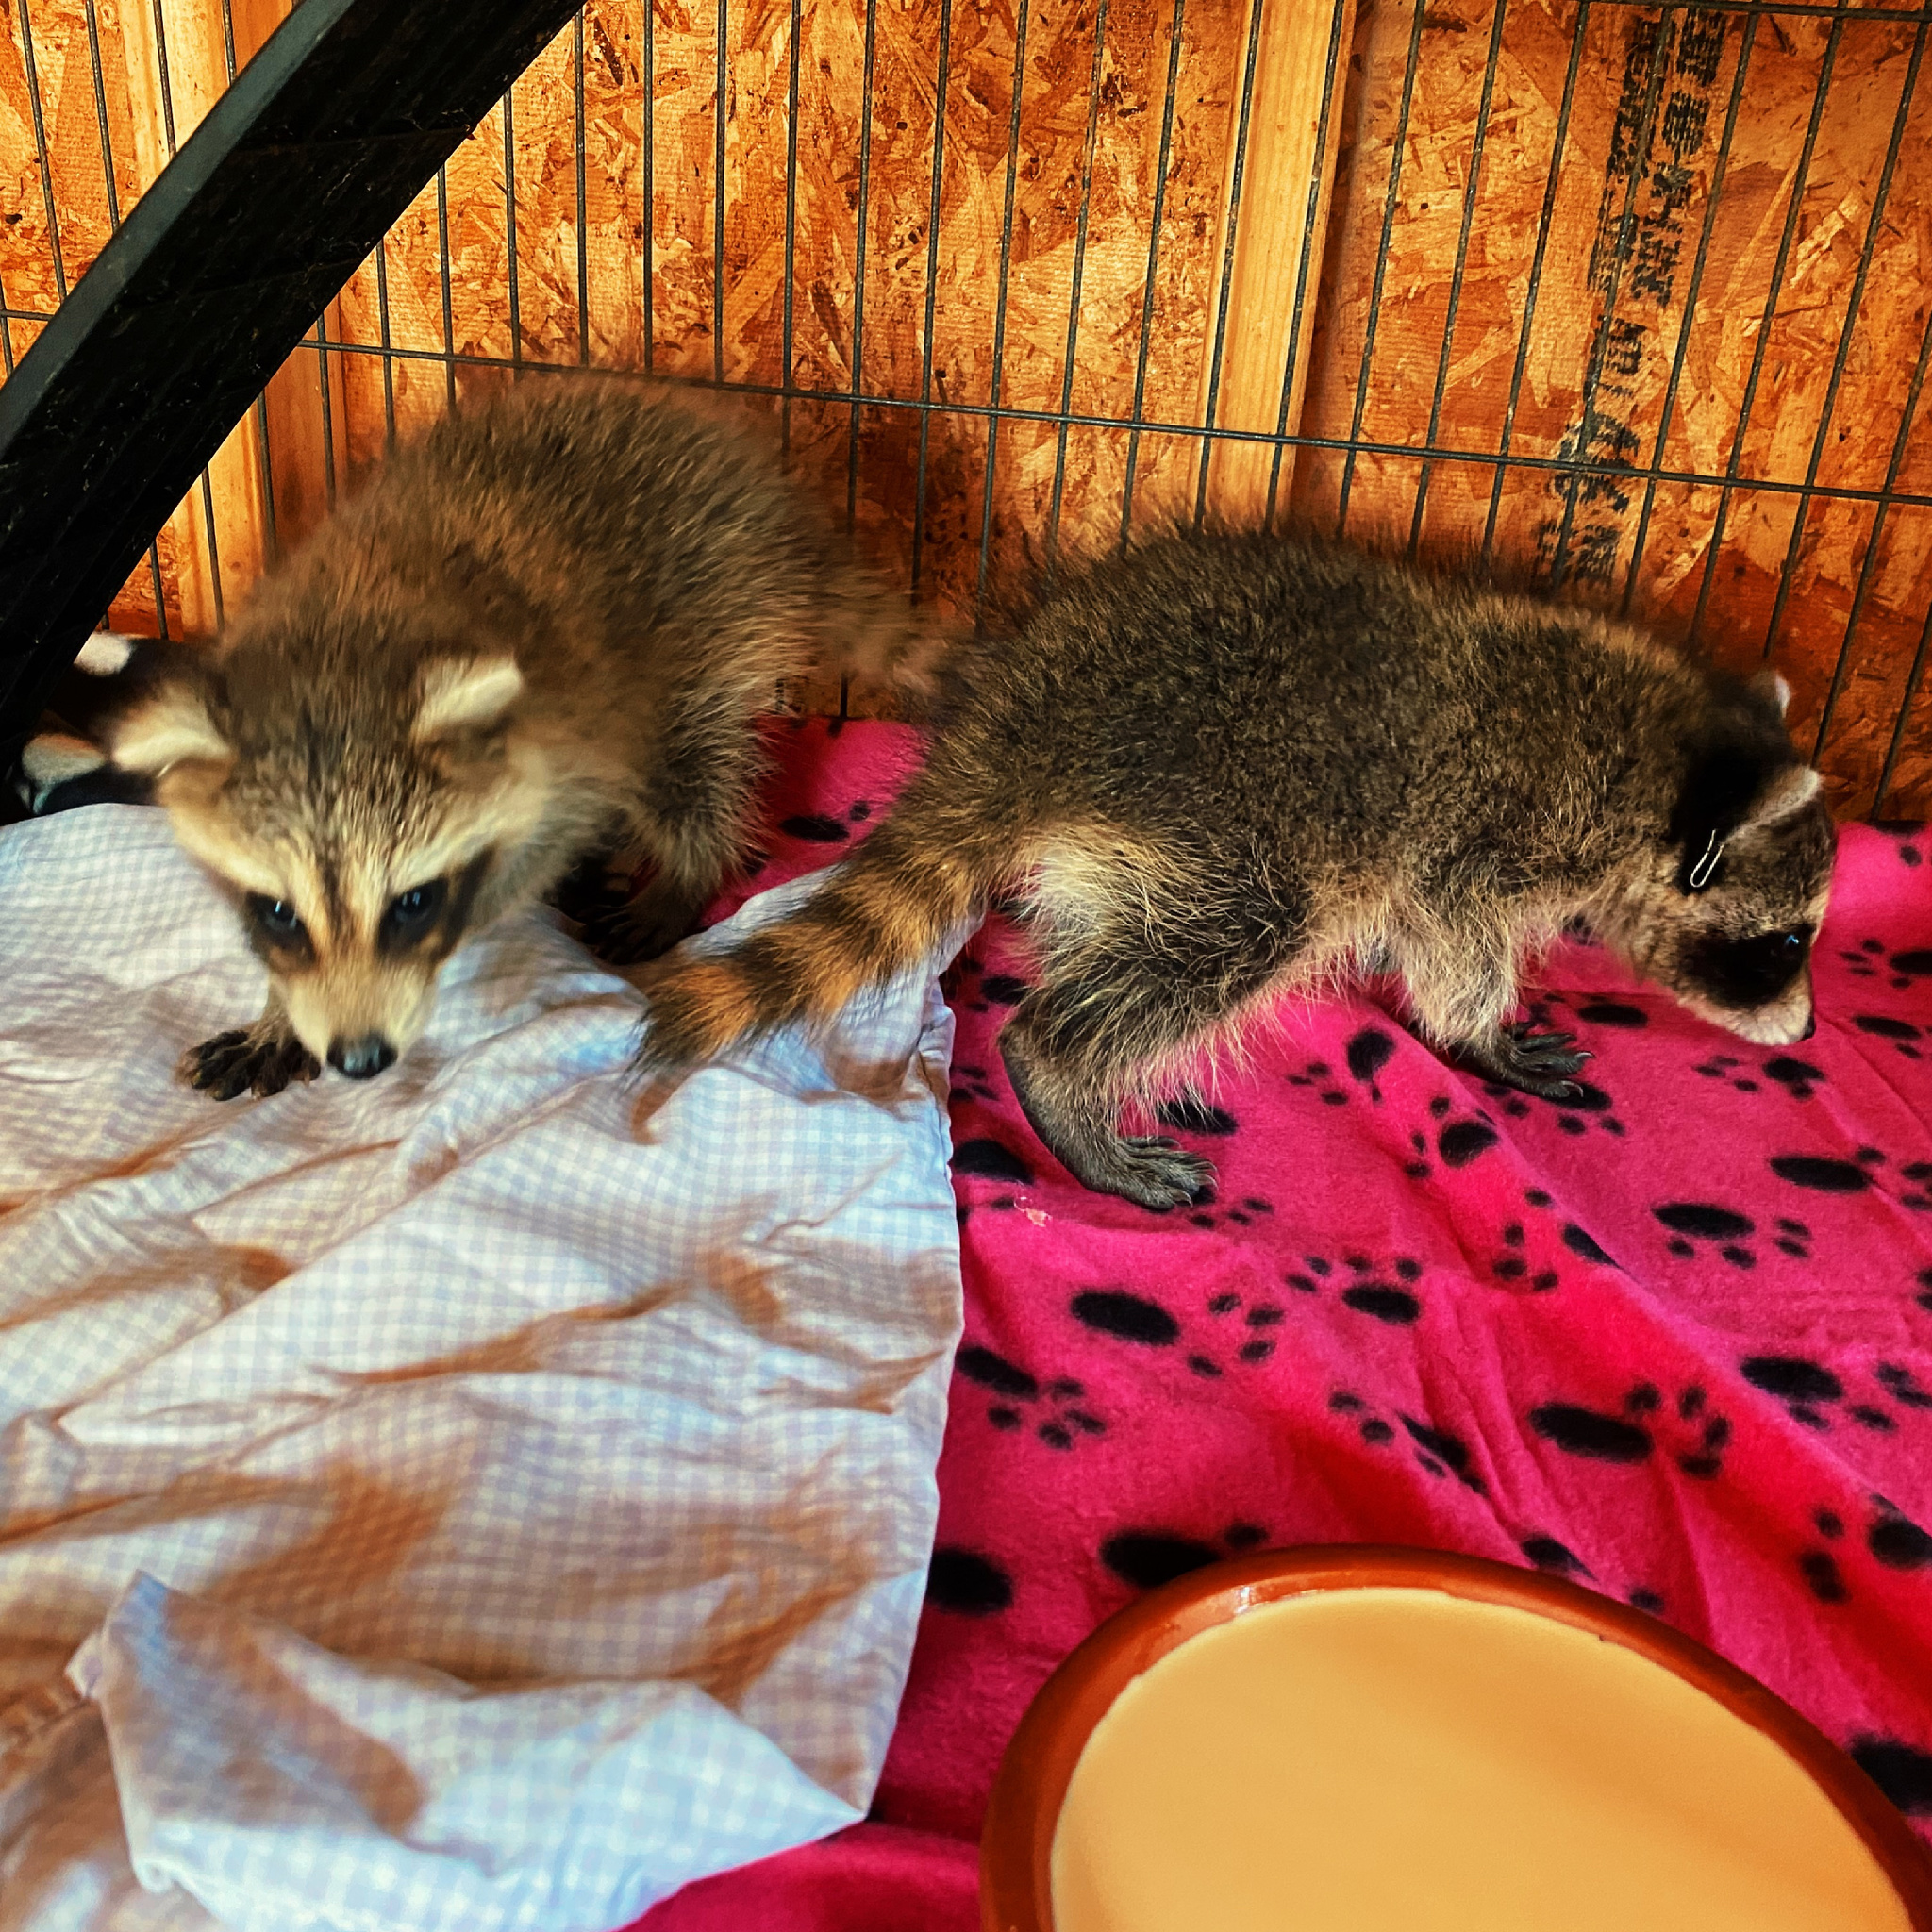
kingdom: Animalia
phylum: Chordata
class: Mammalia
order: Carnivora
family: Procyonidae
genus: Procyon
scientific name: Procyon lotor
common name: Raccoon
